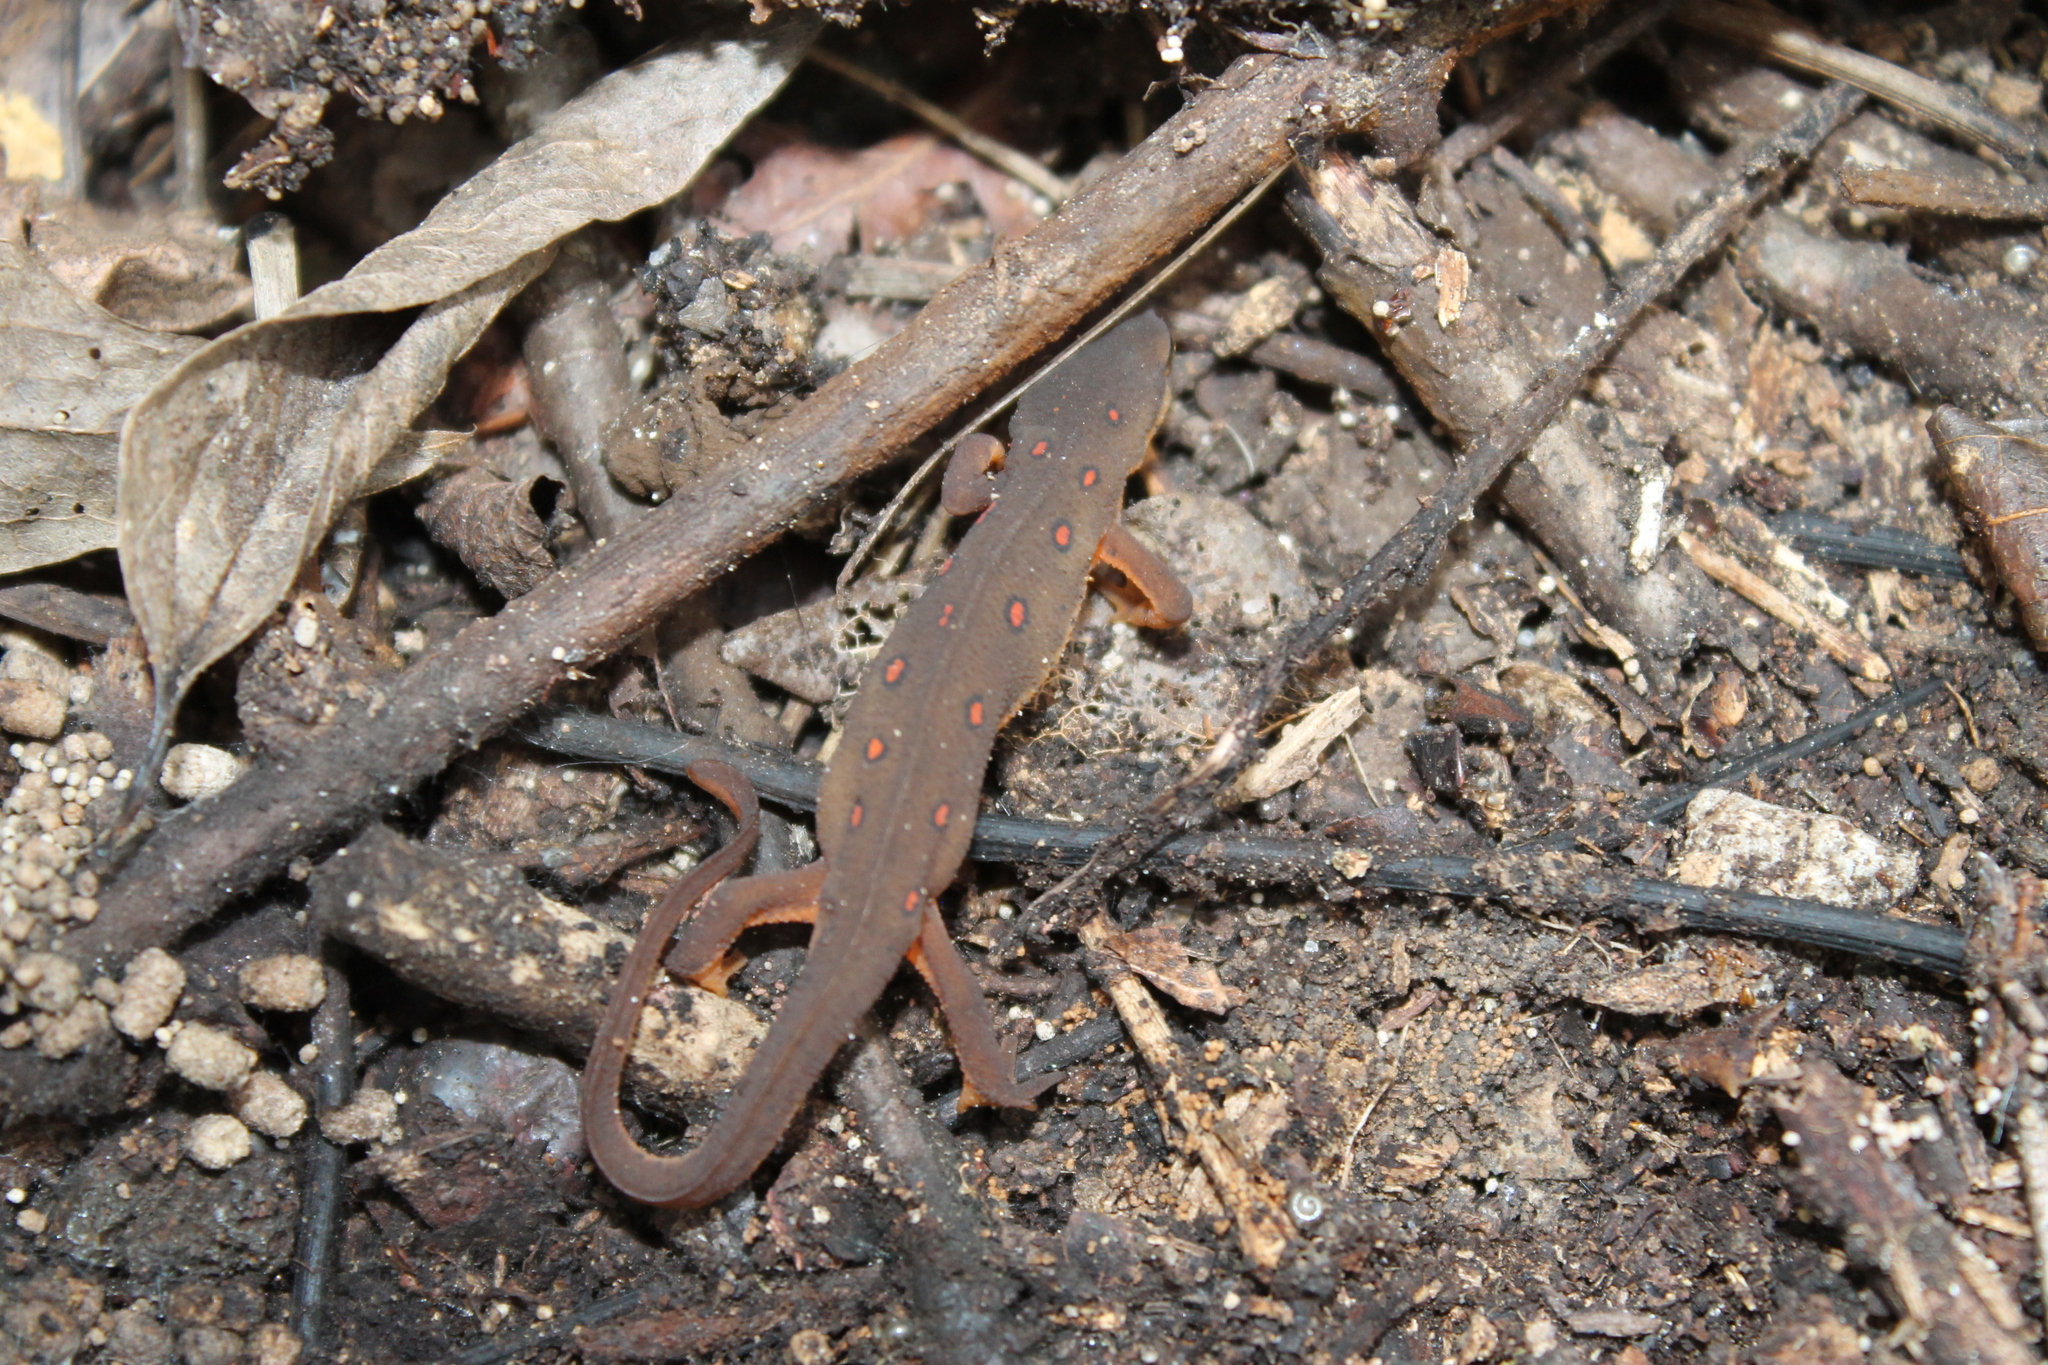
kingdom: Animalia
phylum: Chordata
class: Amphibia
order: Caudata
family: Salamandridae
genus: Notophthalmus
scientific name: Notophthalmus viridescens
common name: Eastern newt
